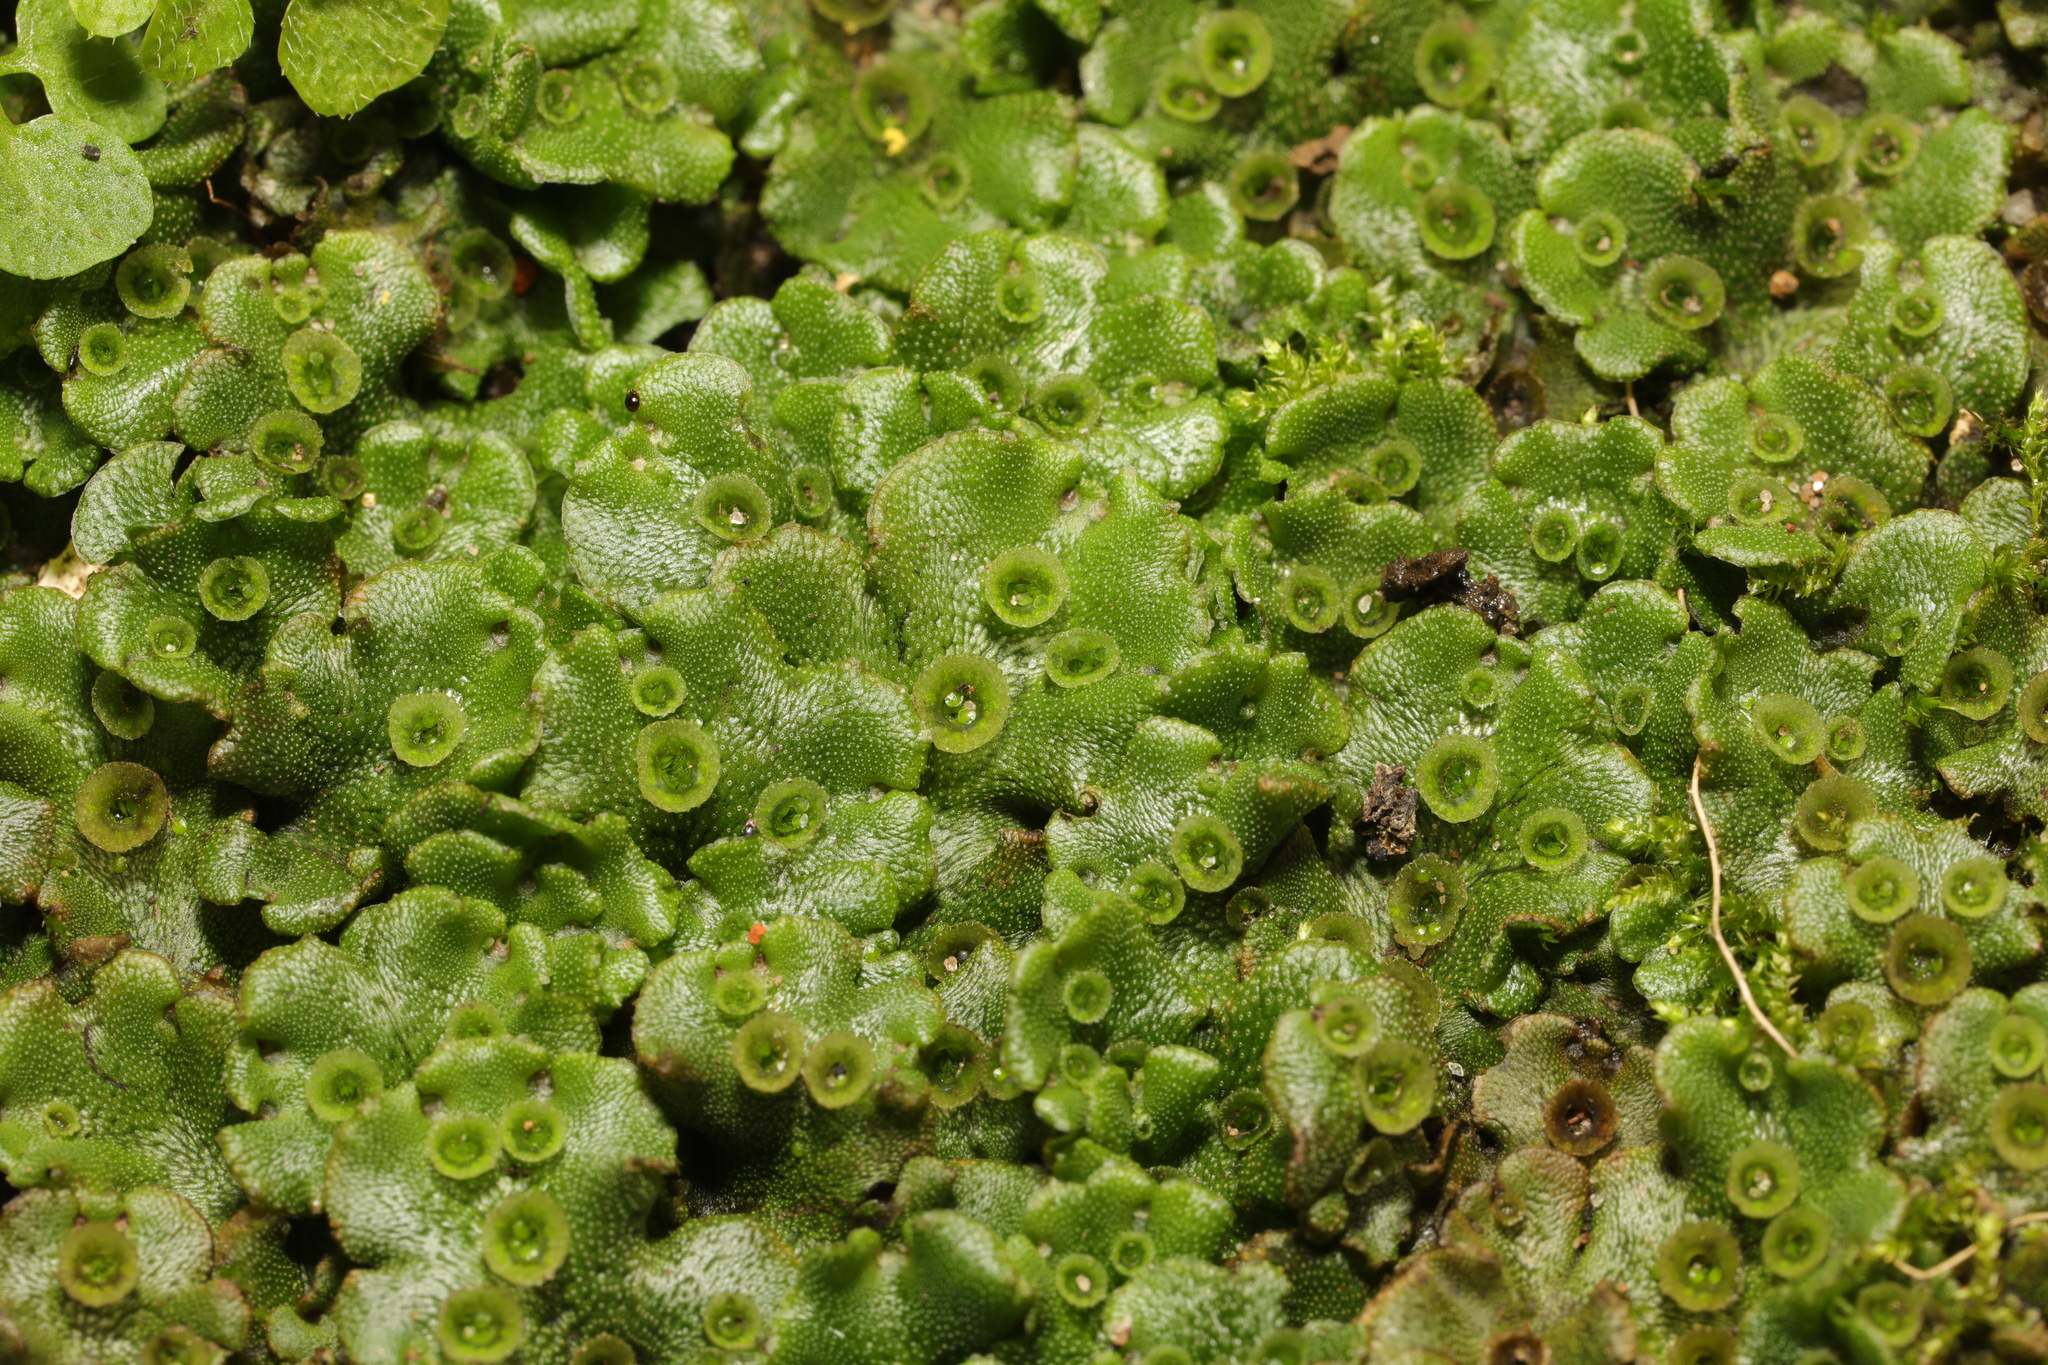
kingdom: Plantae
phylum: Marchantiophyta
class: Marchantiopsida
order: Marchantiales
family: Marchantiaceae
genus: Marchantia
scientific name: Marchantia polymorpha
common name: Common liverwort
